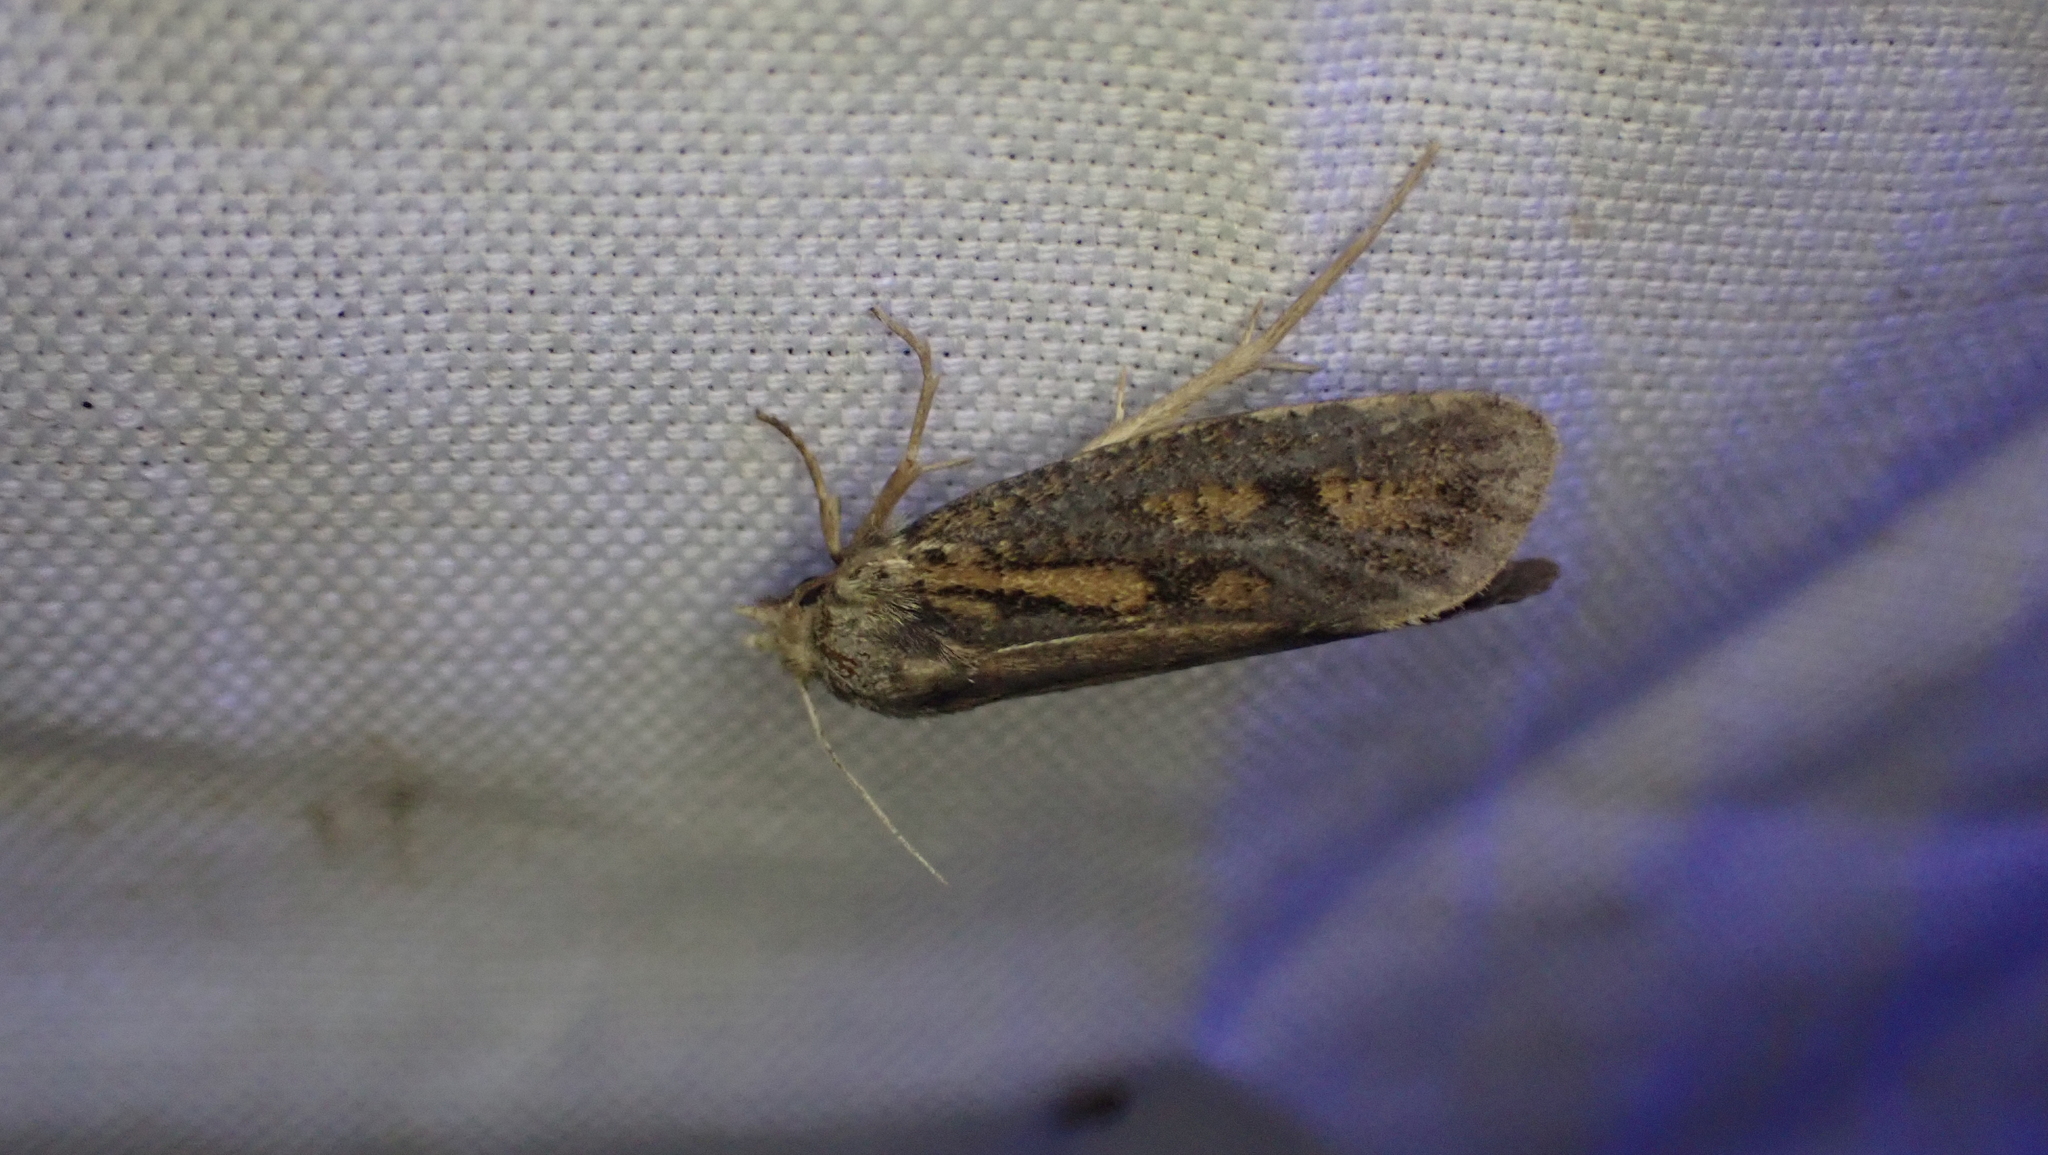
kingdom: Animalia
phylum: Arthropoda
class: Insecta
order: Lepidoptera
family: Tineidae
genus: Acrolophus
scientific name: Acrolophus popeanella
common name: Clemens' grass tubeworm moth
